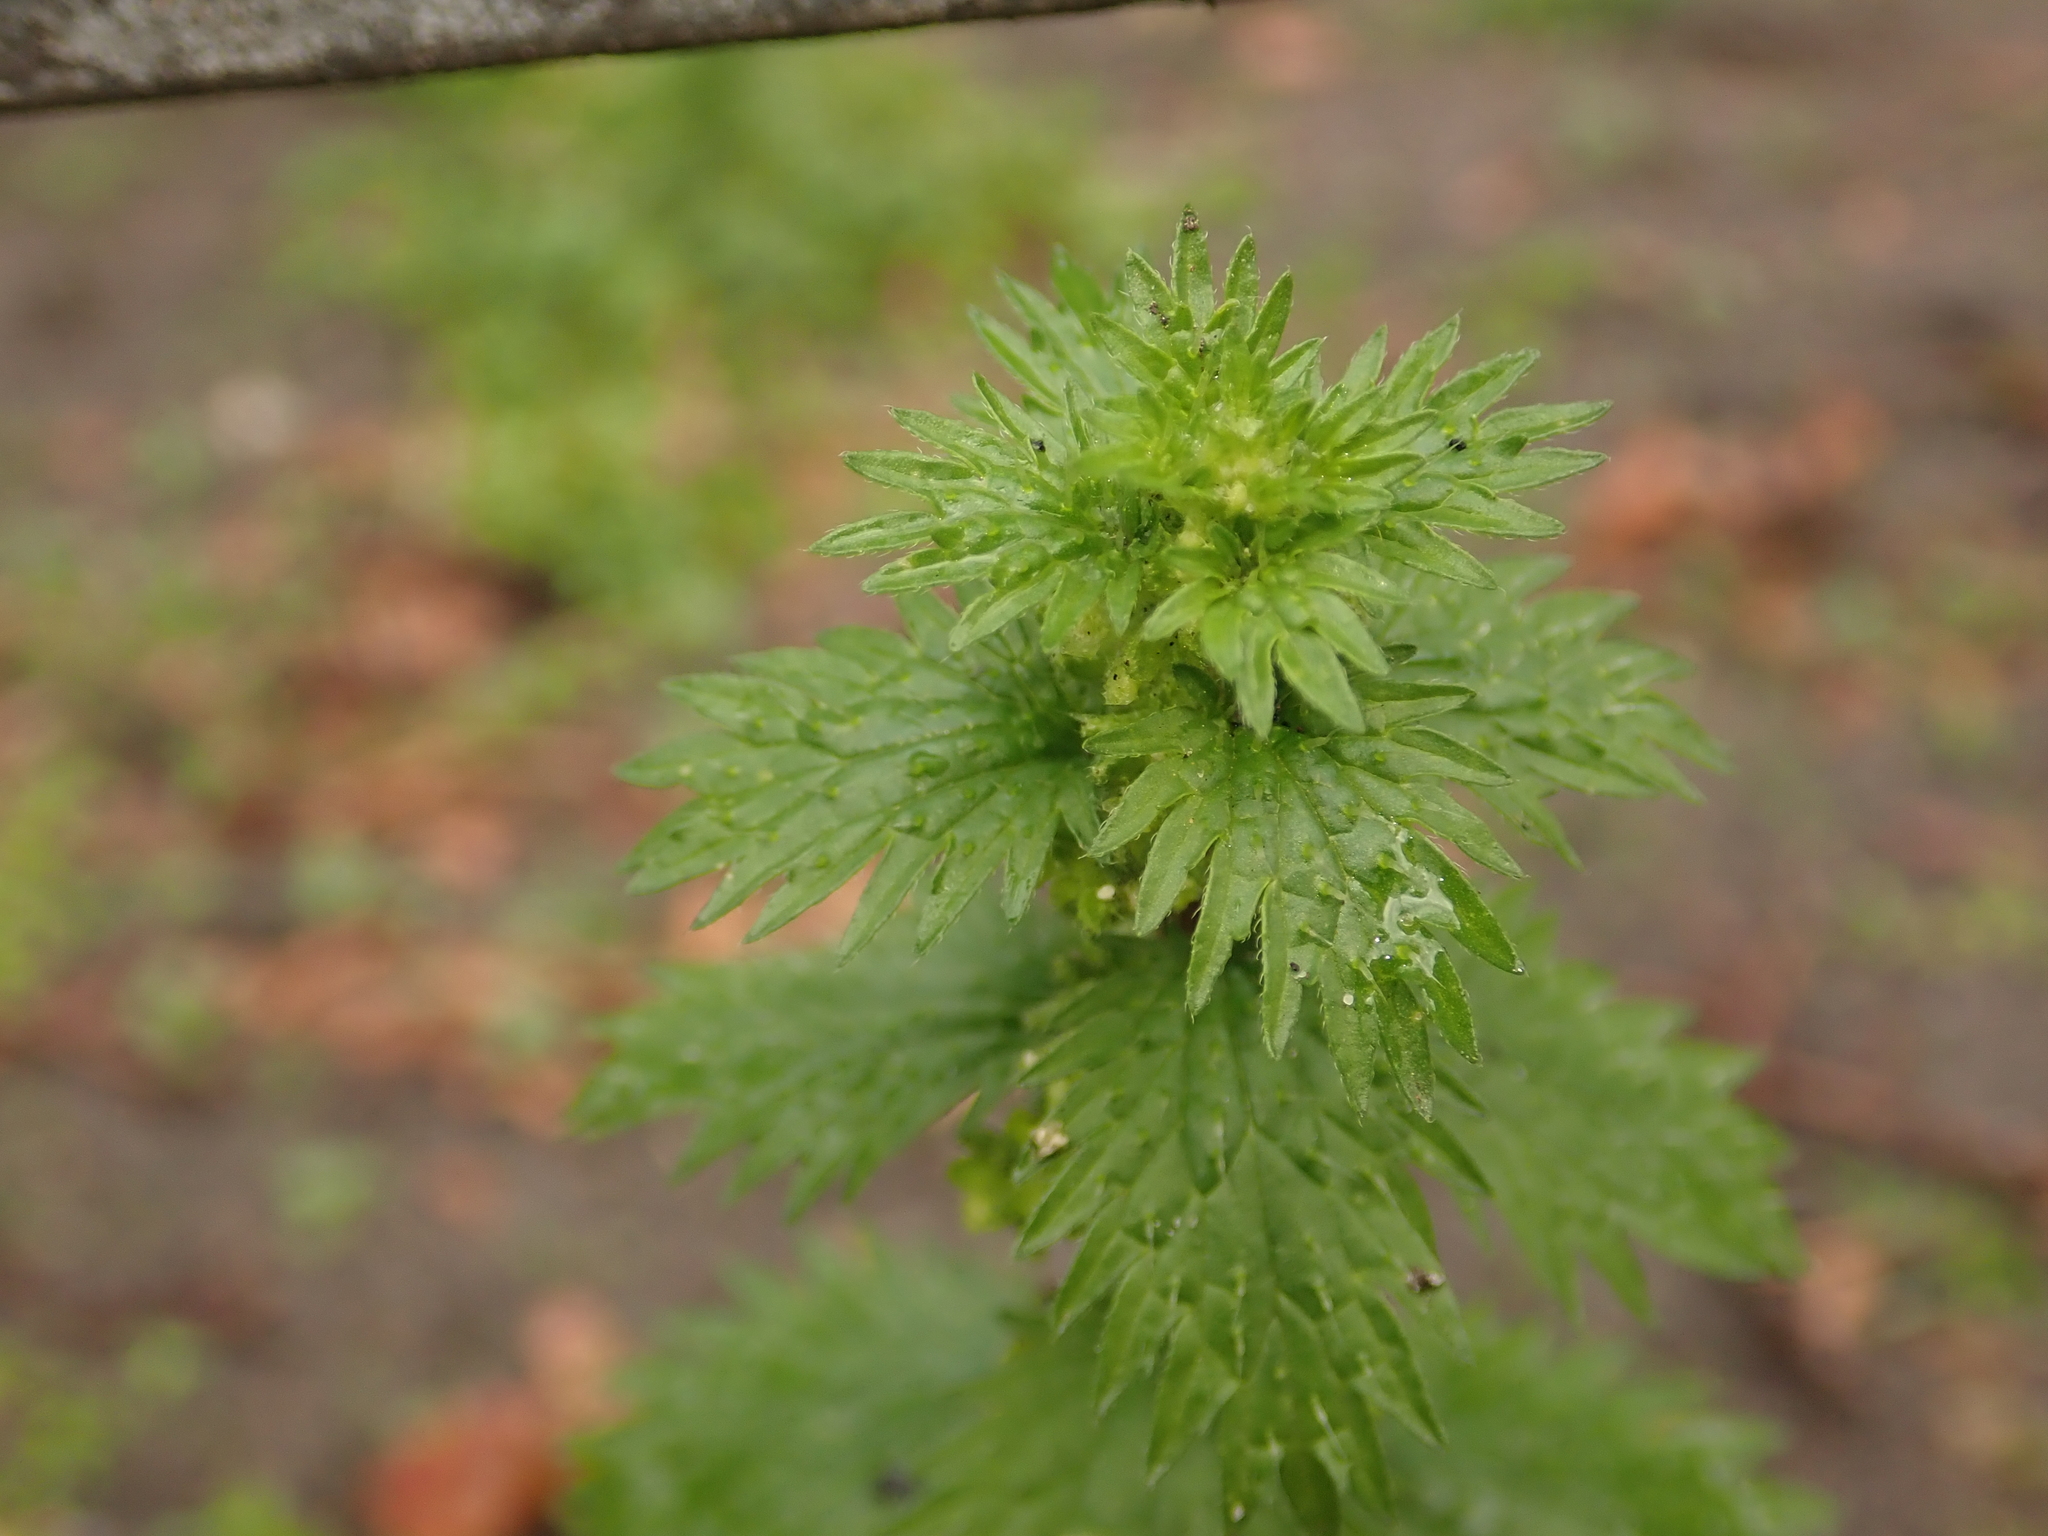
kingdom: Plantae
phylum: Tracheophyta
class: Magnoliopsida
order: Rosales
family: Urticaceae
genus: Urtica
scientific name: Urtica urens
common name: Dwarf nettle
